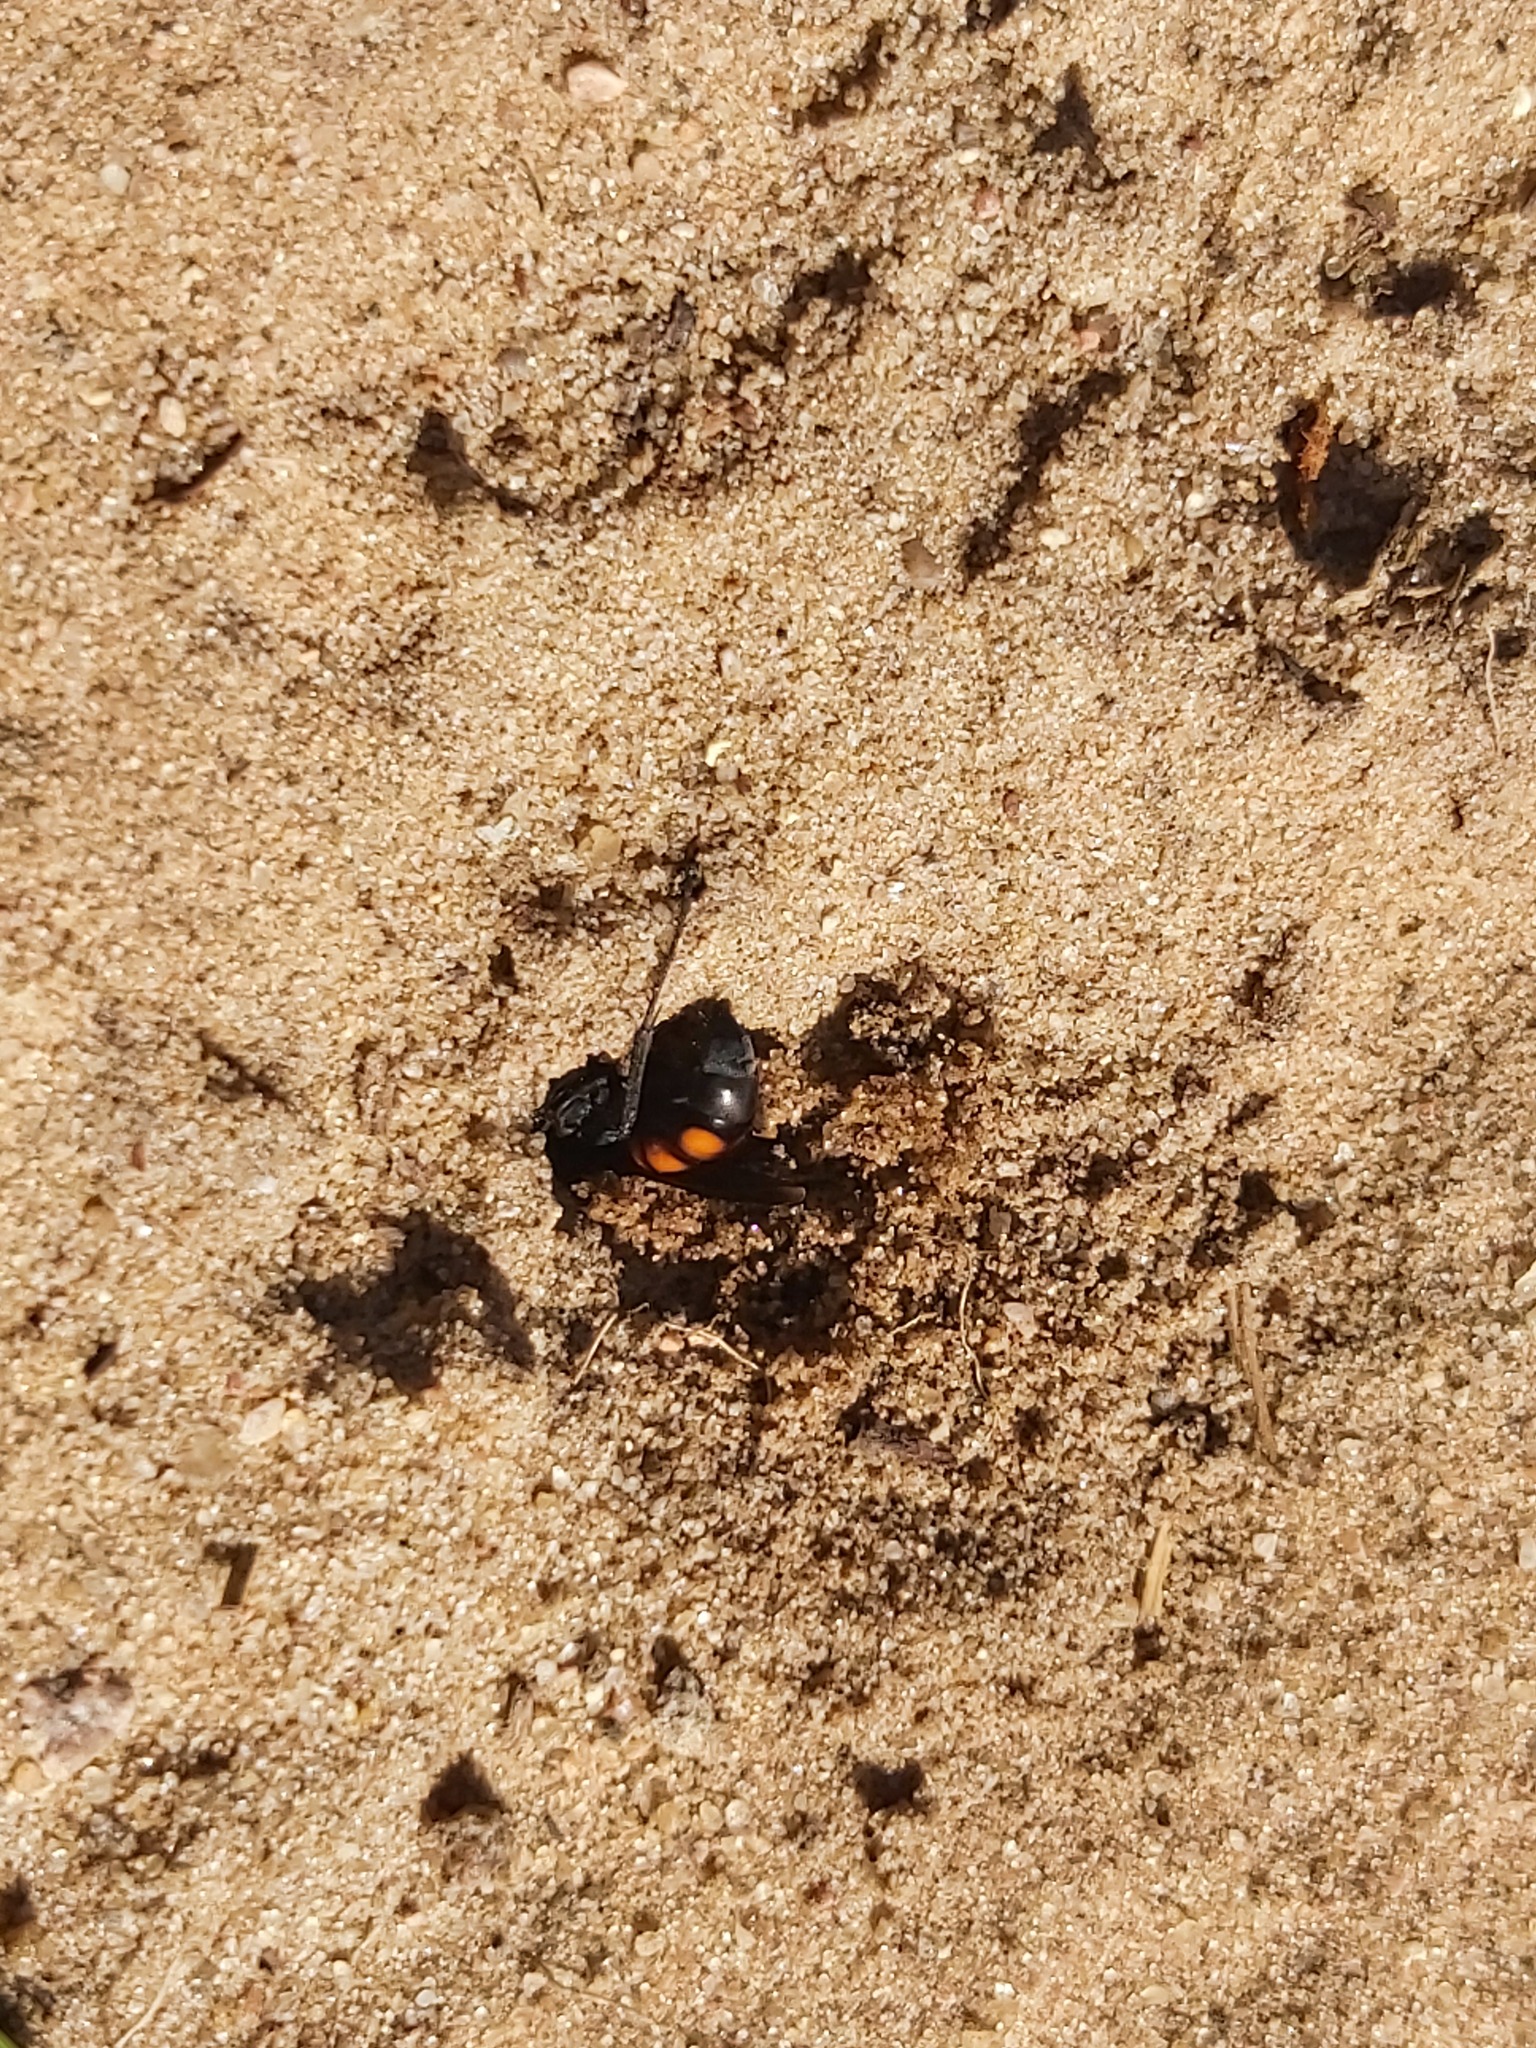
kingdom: Animalia
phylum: Arthropoda
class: Insecta
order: Hymenoptera
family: Pompilidae
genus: Anoplius
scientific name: Anoplius viaticus
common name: Black banded spider wasp
